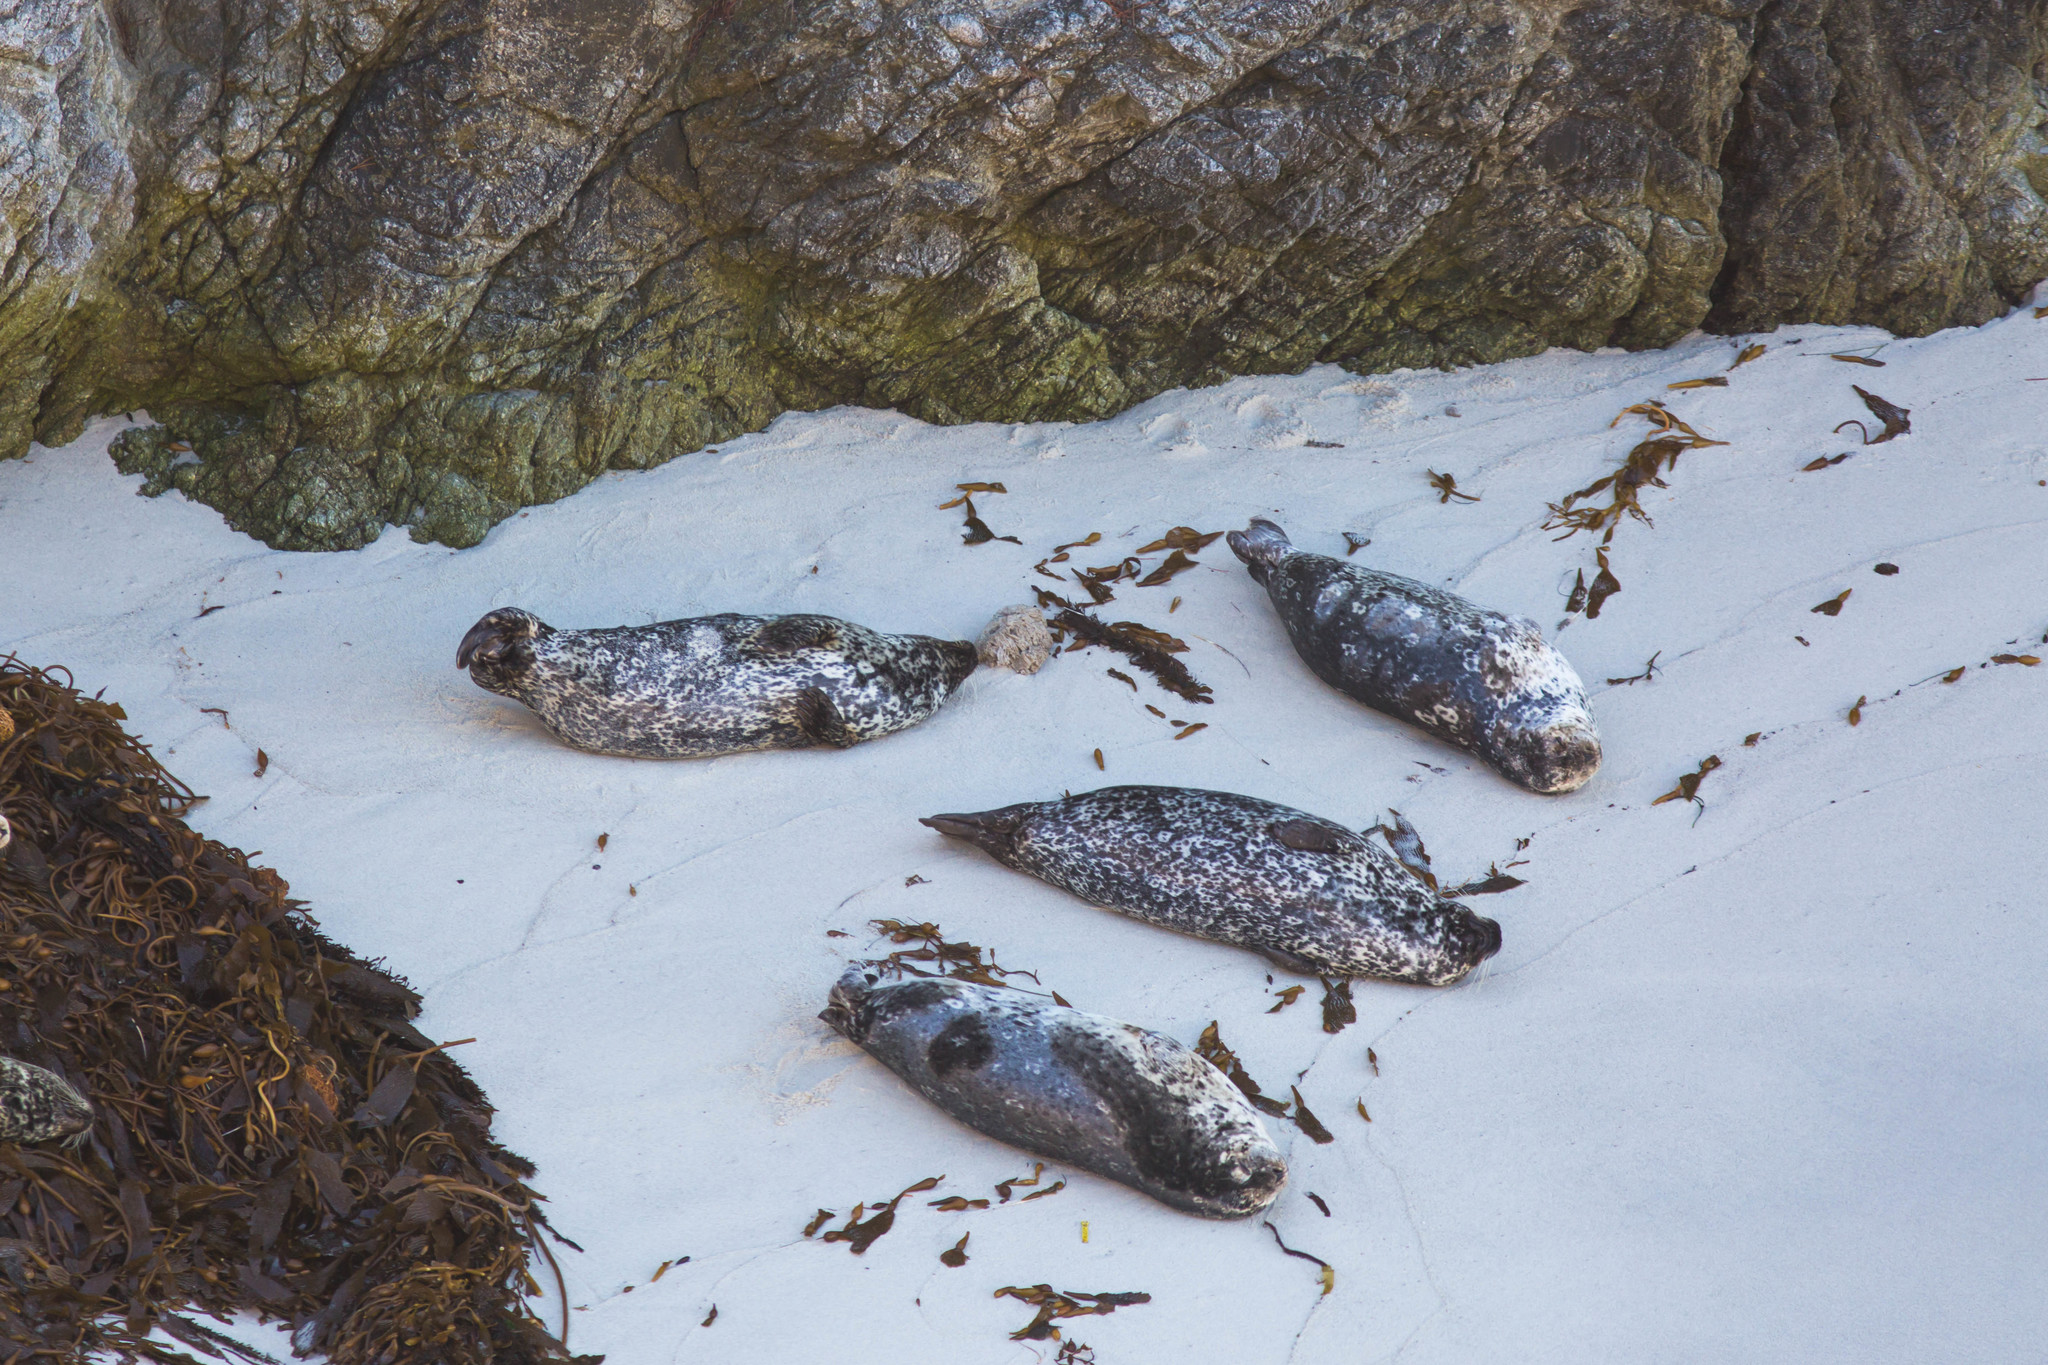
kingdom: Animalia
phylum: Chordata
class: Mammalia
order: Carnivora
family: Phocidae
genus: Phoca
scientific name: Phoca vitulina
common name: Harbor seal
